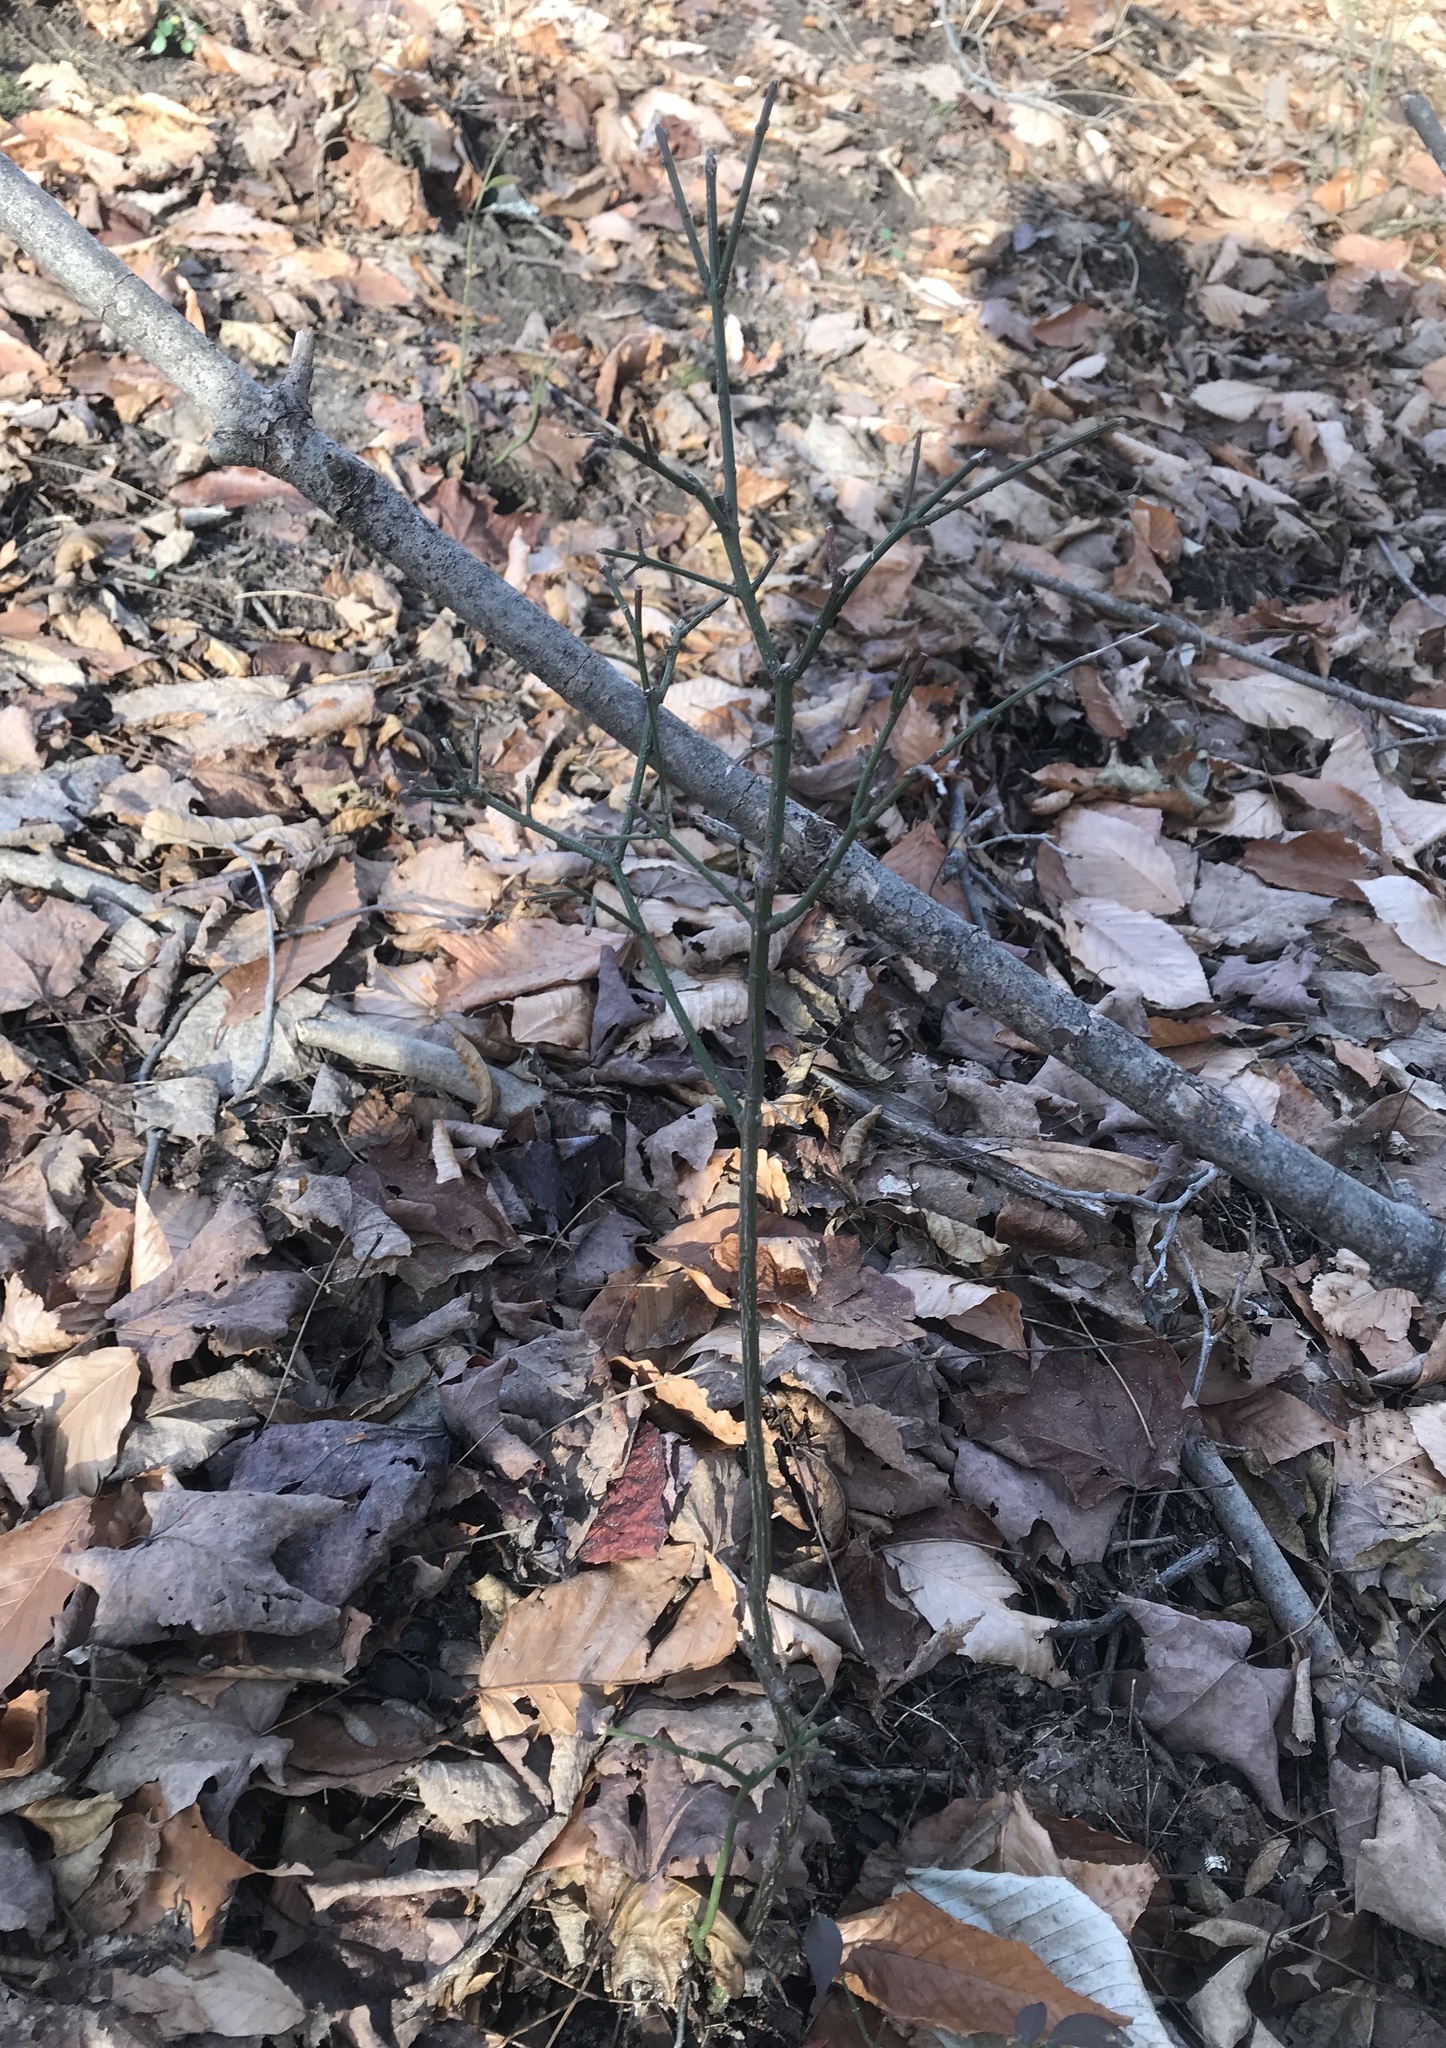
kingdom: Plantae
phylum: Tracheophyta
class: Magnoliopsida
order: Celastrales
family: Celastraceae
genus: Euonymus
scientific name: Euonymus alatus
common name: Winged euonymus
